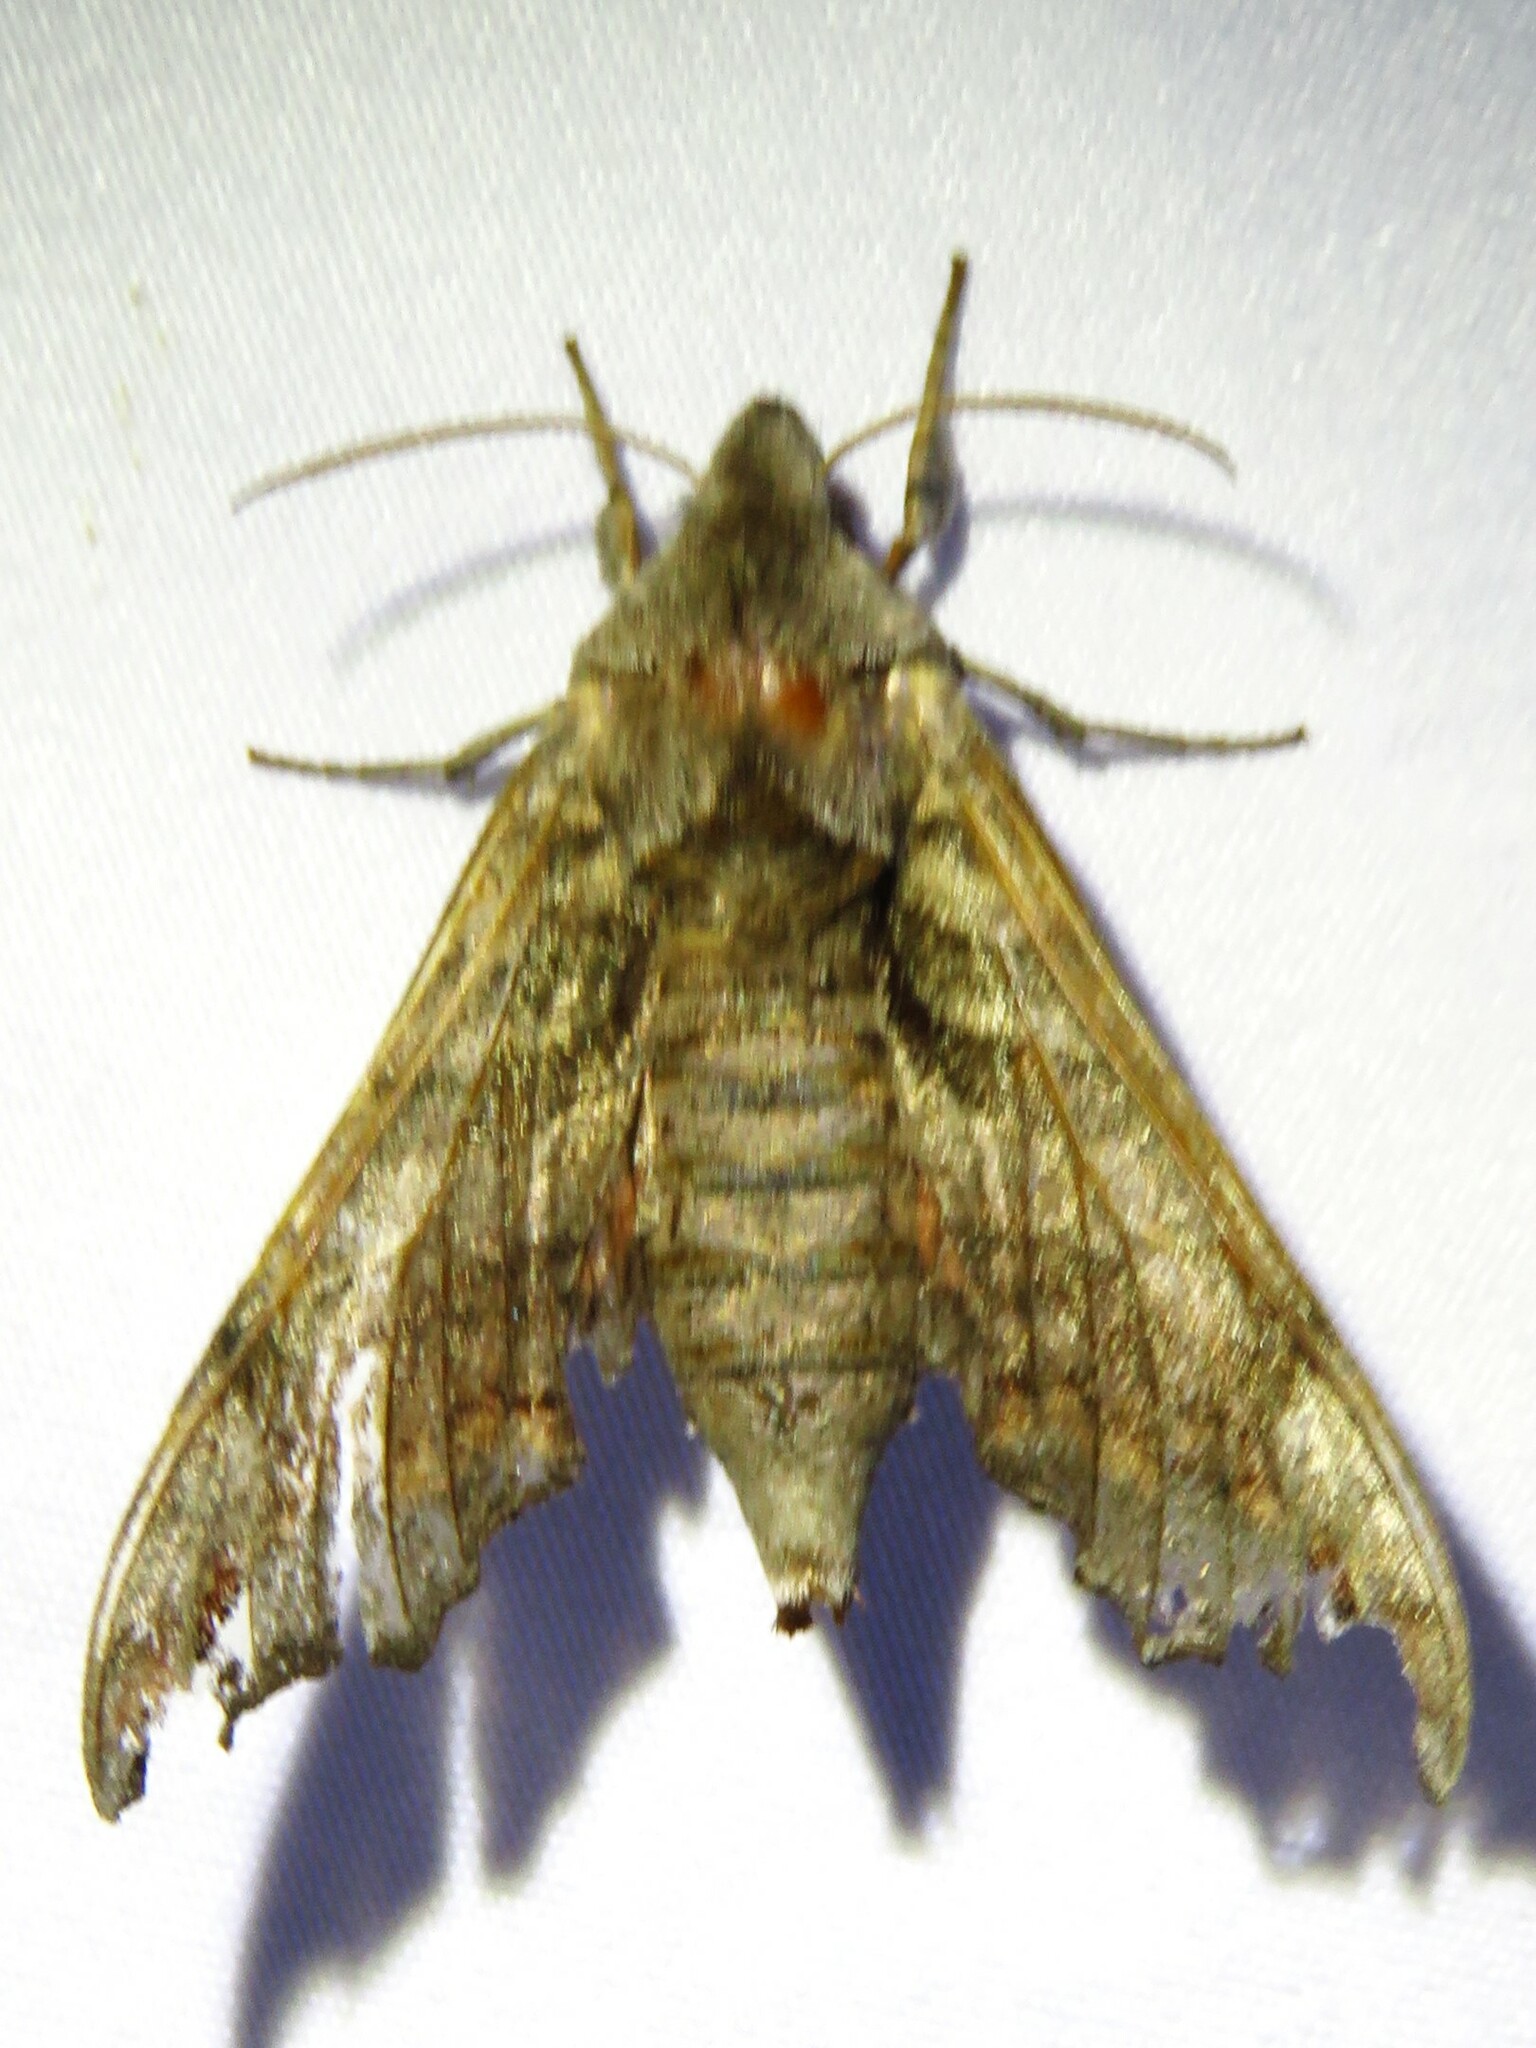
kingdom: Animalia
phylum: Arthropoda
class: Insecta
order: Lepidoptera
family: Sphingidae
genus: Deidamia
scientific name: Deidamia inscriptum
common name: Lettered sphinx
